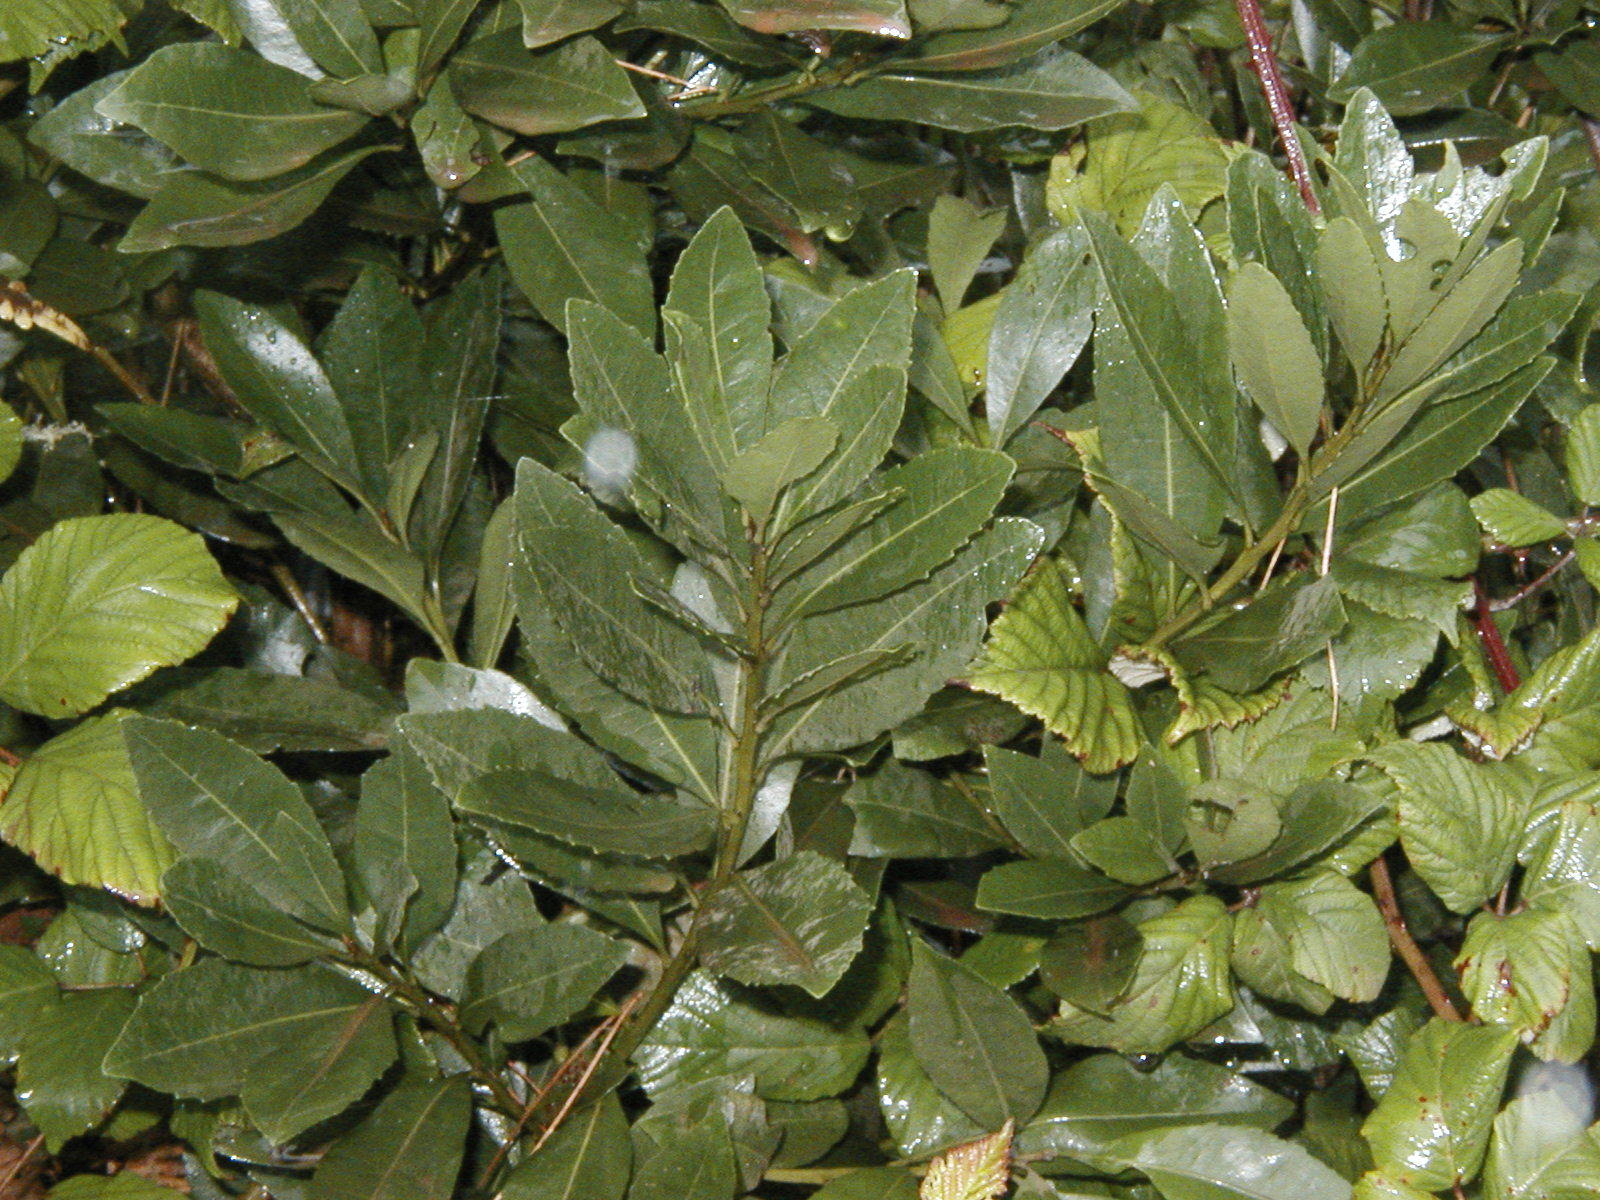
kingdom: Plantae
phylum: Tracheophyta
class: Magnoliopsida
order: Ericales
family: Pentaphylacaceae
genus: Visnea
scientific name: Visnea mocanera
